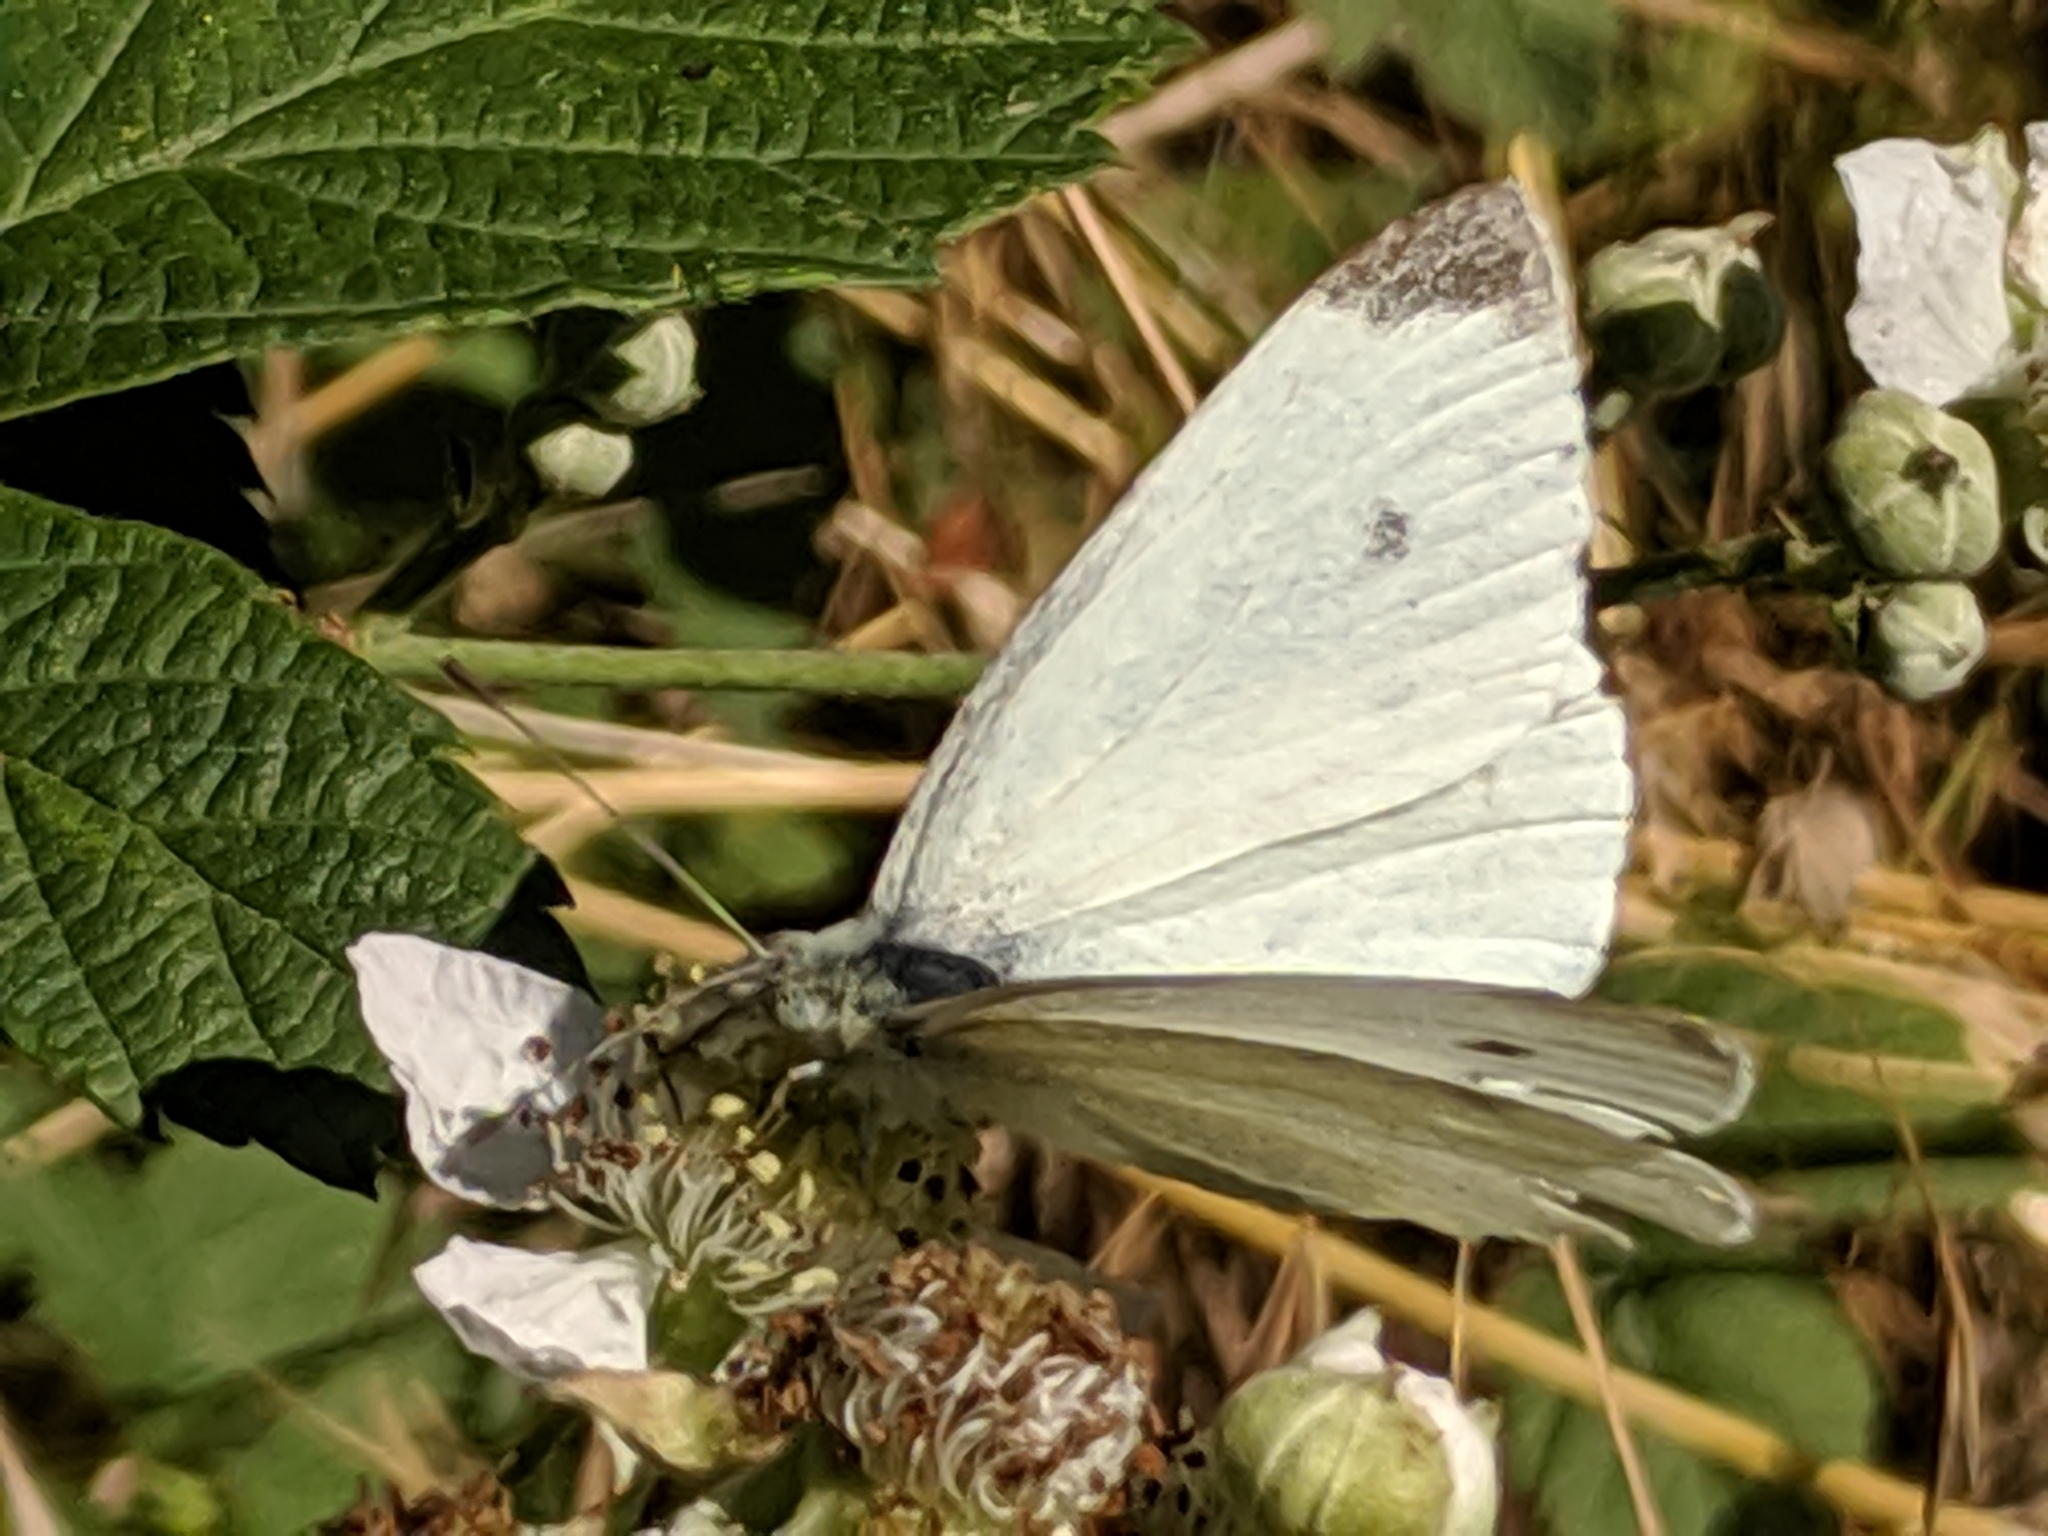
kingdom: Animalia
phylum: Arthropoda
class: Insecta
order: Lepidoptera
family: Pieridae
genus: Pieris
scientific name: Pieris rapae
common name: Small white
